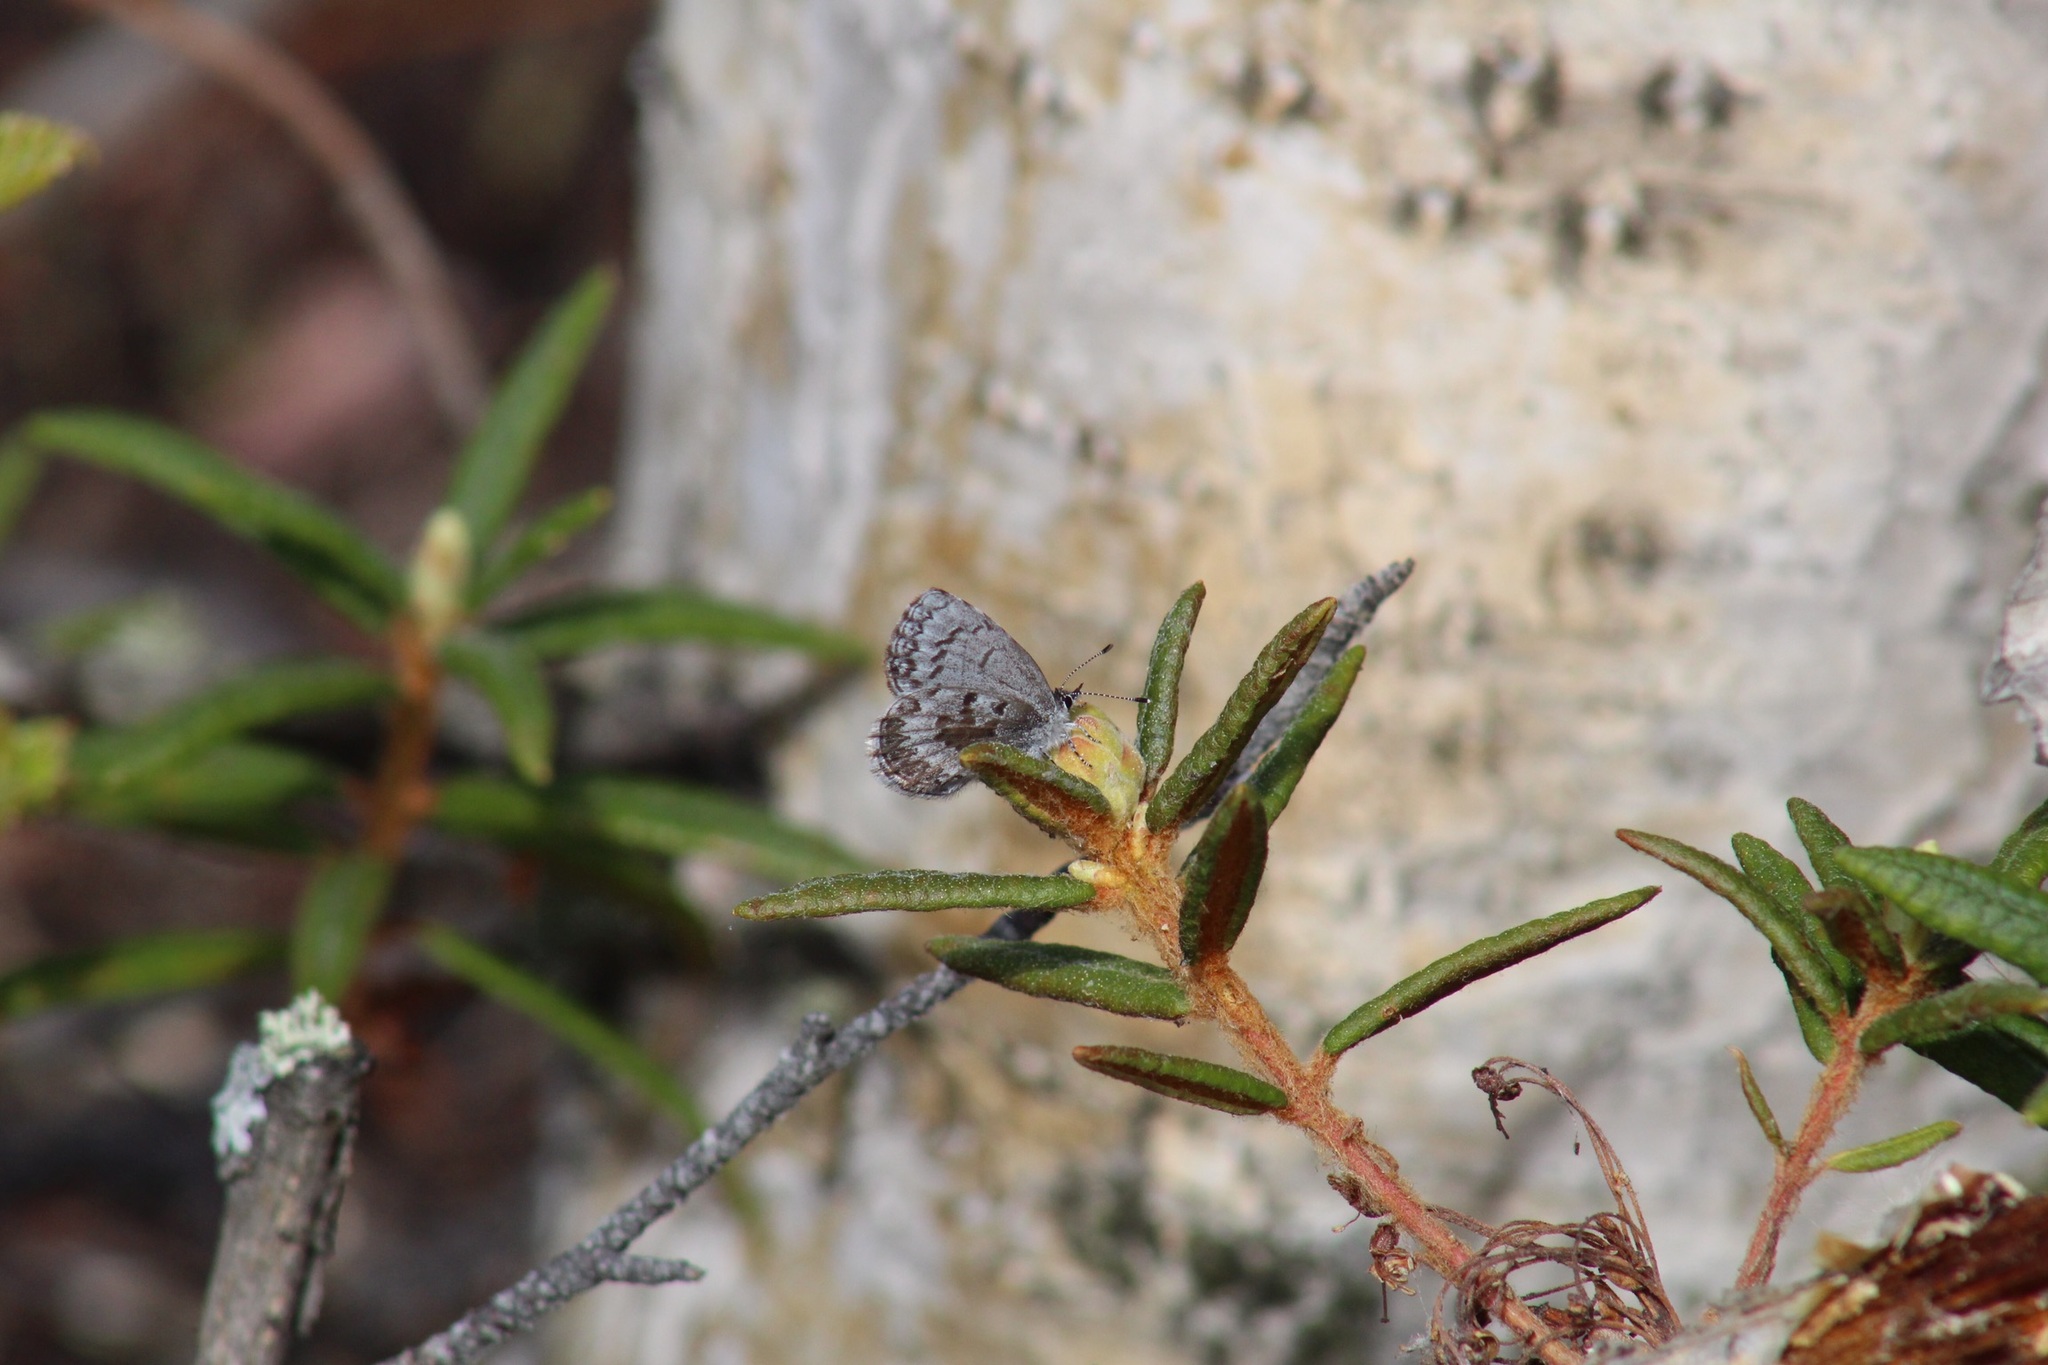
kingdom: Animalia
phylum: Arthropoda
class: Insecta
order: Lepidoptera
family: Lycaenidae
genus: Celastrina
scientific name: Celastrina lucia
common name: Lucia azure
